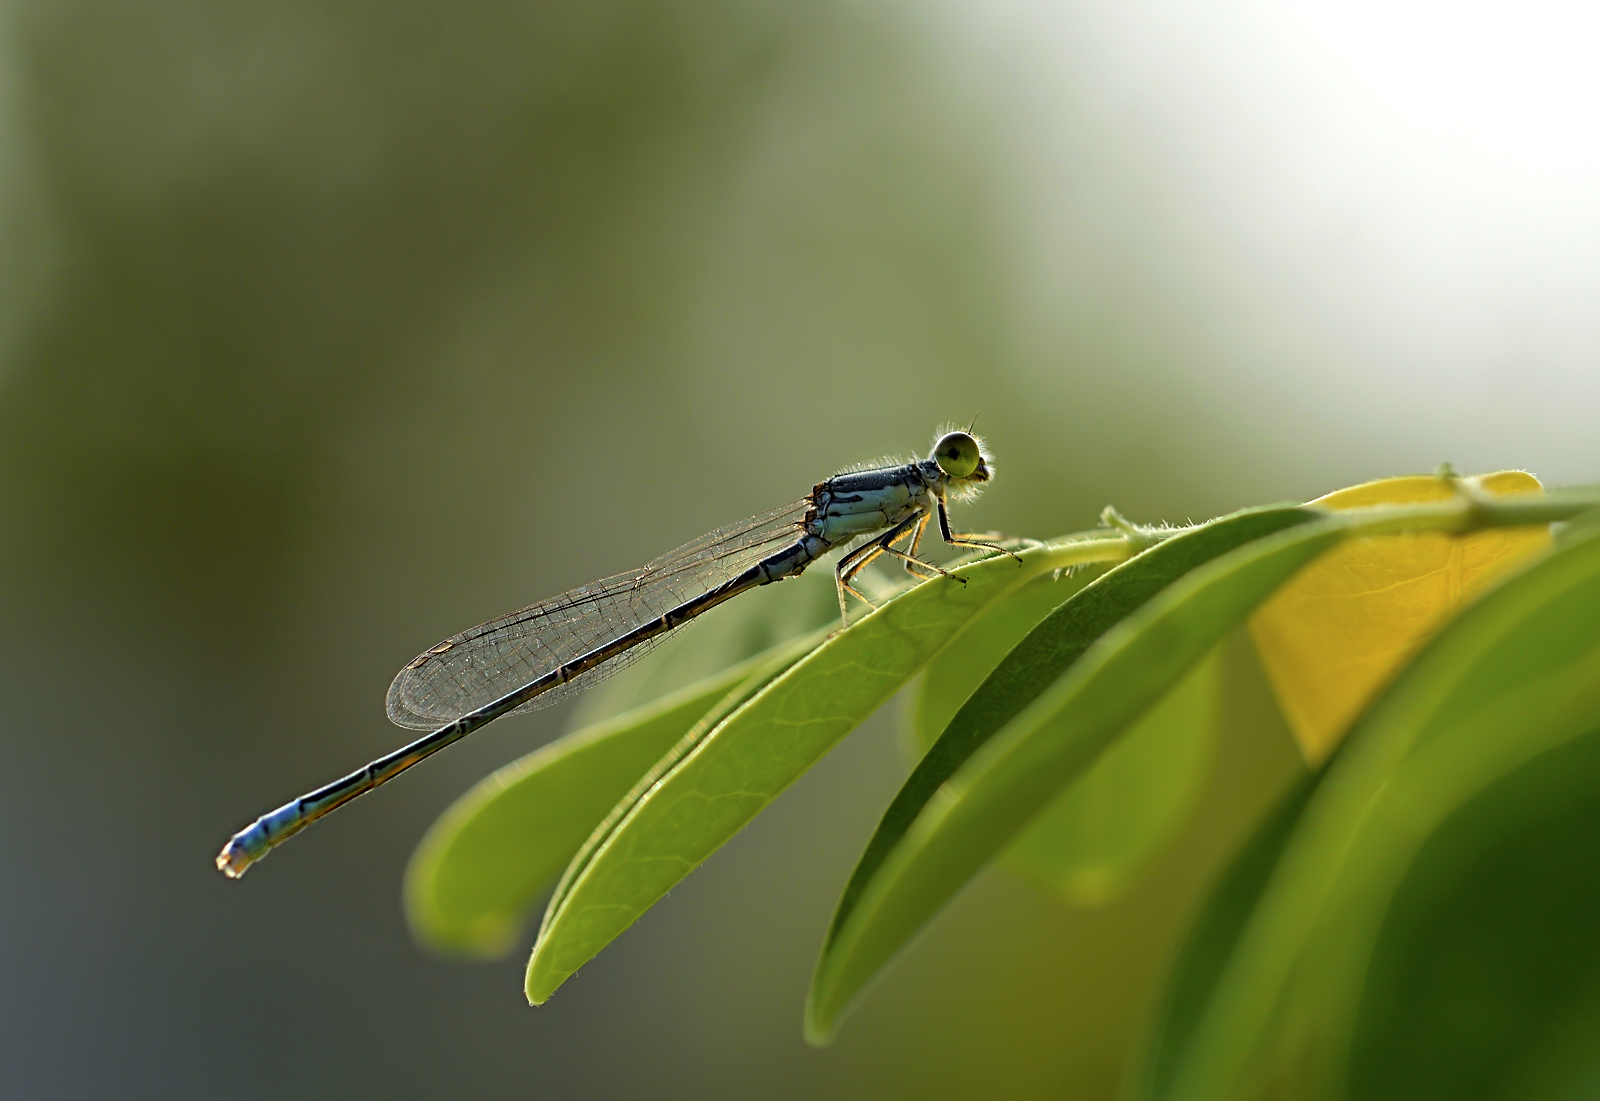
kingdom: Animalia
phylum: Arthropoda
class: Insecta
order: Odonata
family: Coenagrionidae
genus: Paracercion
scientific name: Paracercion calamorum
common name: Dusky lilysquatter
